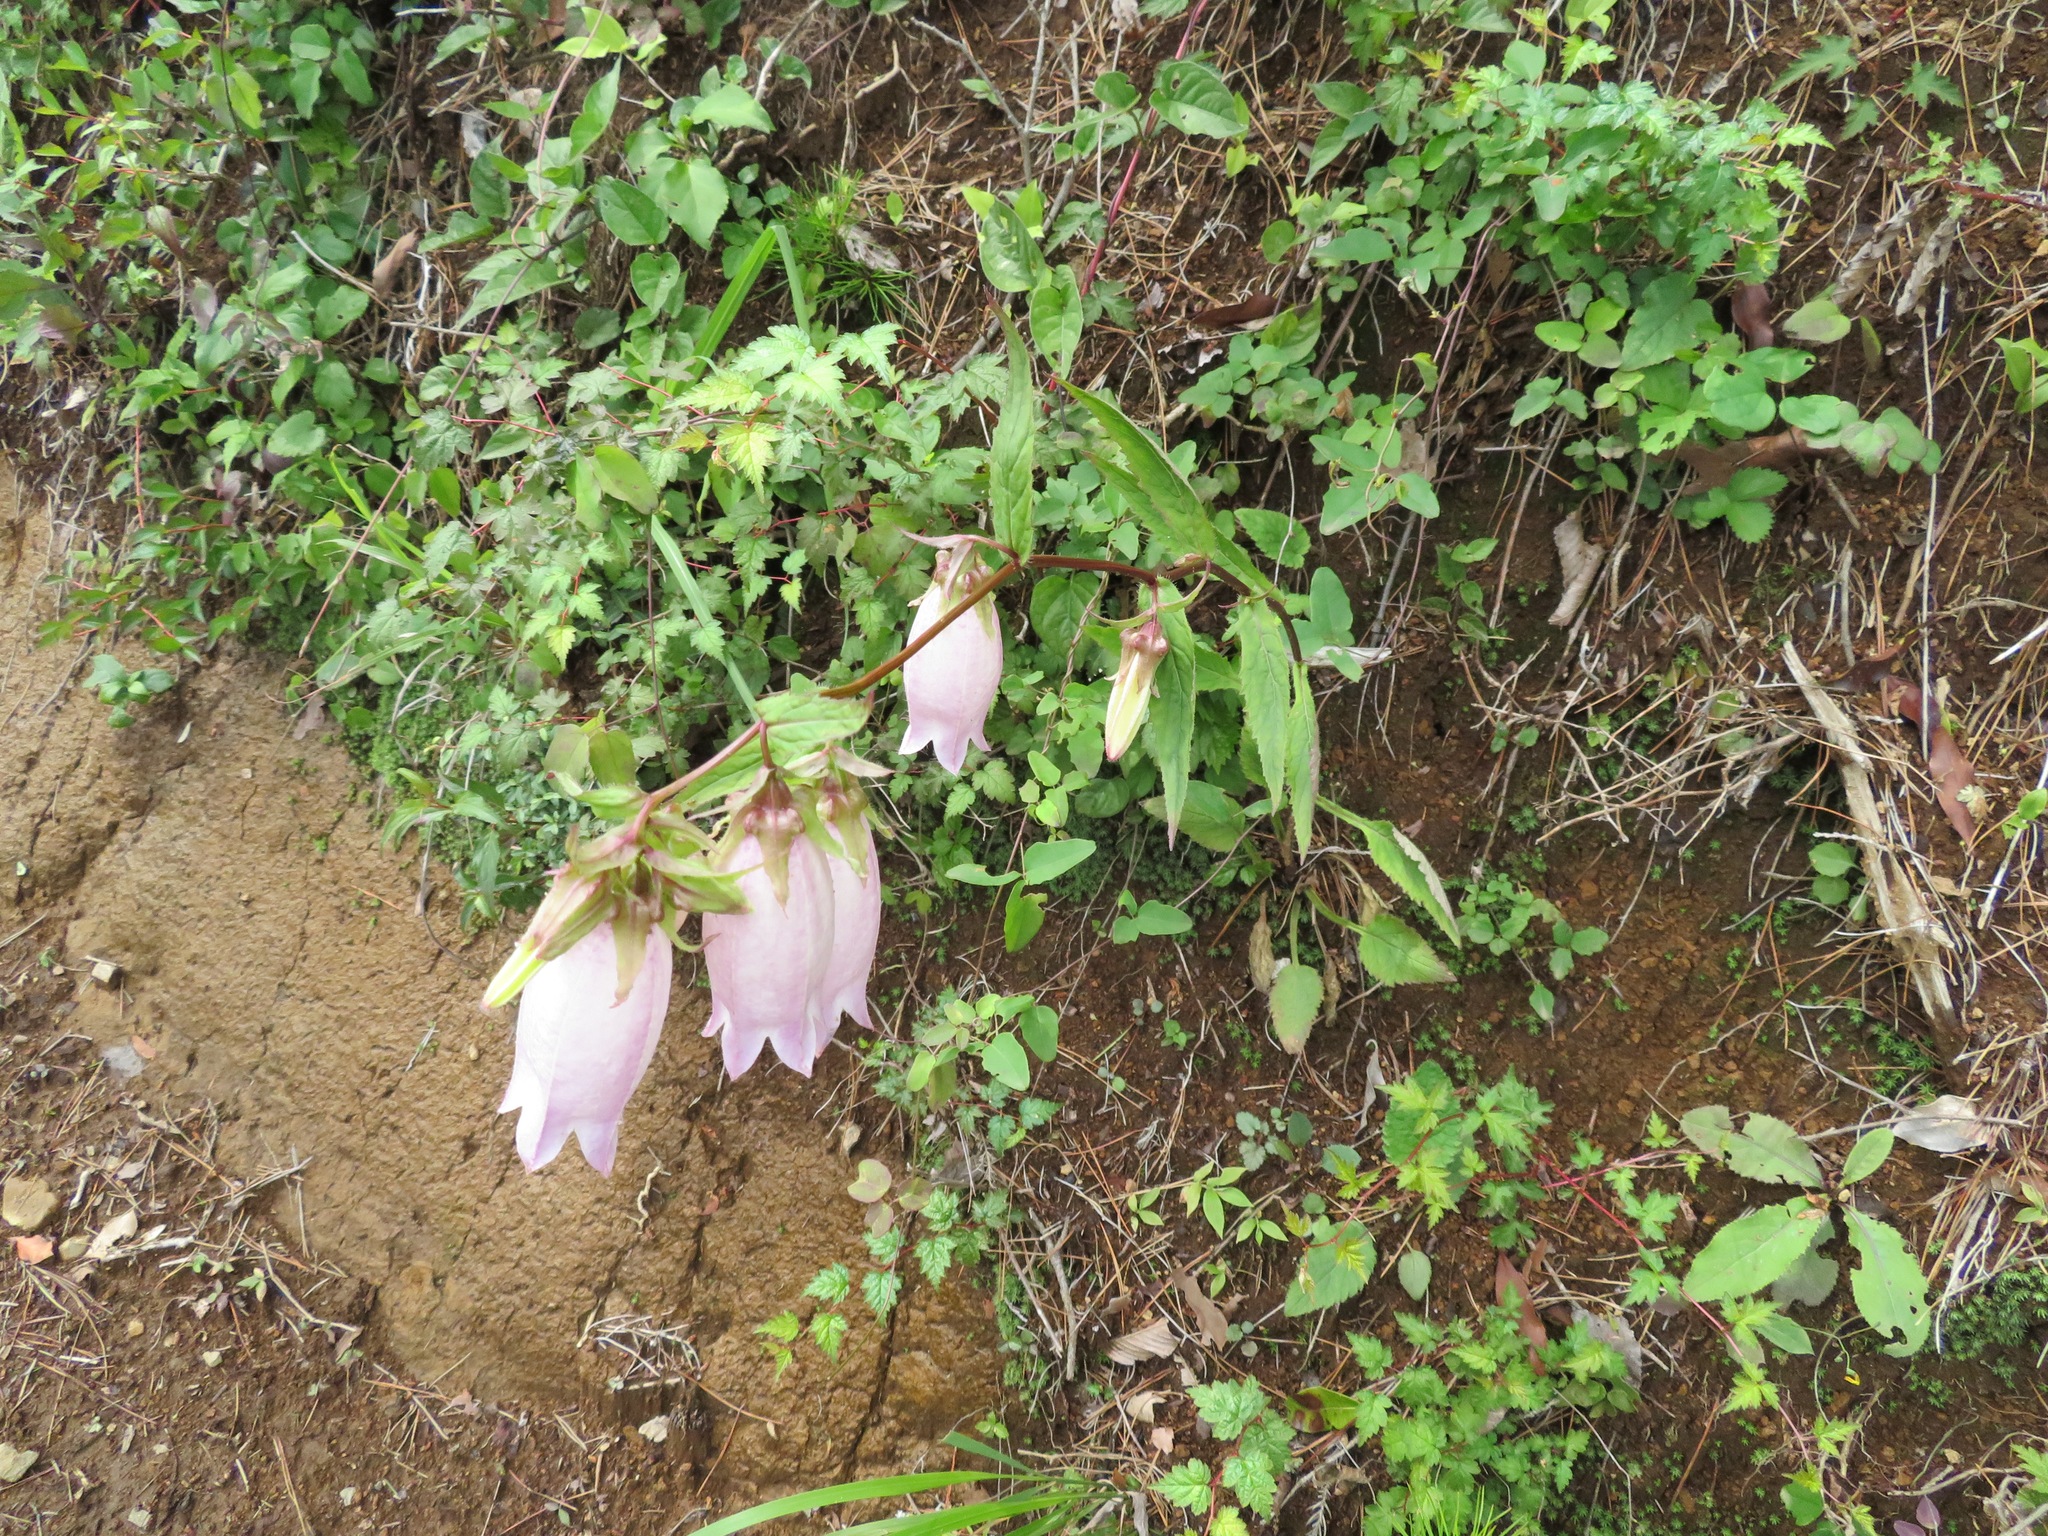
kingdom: Plantae
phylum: Tracheophyta
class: Magnoliopsida
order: Asterales
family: Campanulaceae
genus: Campanula
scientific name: Campanula punctata
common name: Spotted bellflower
